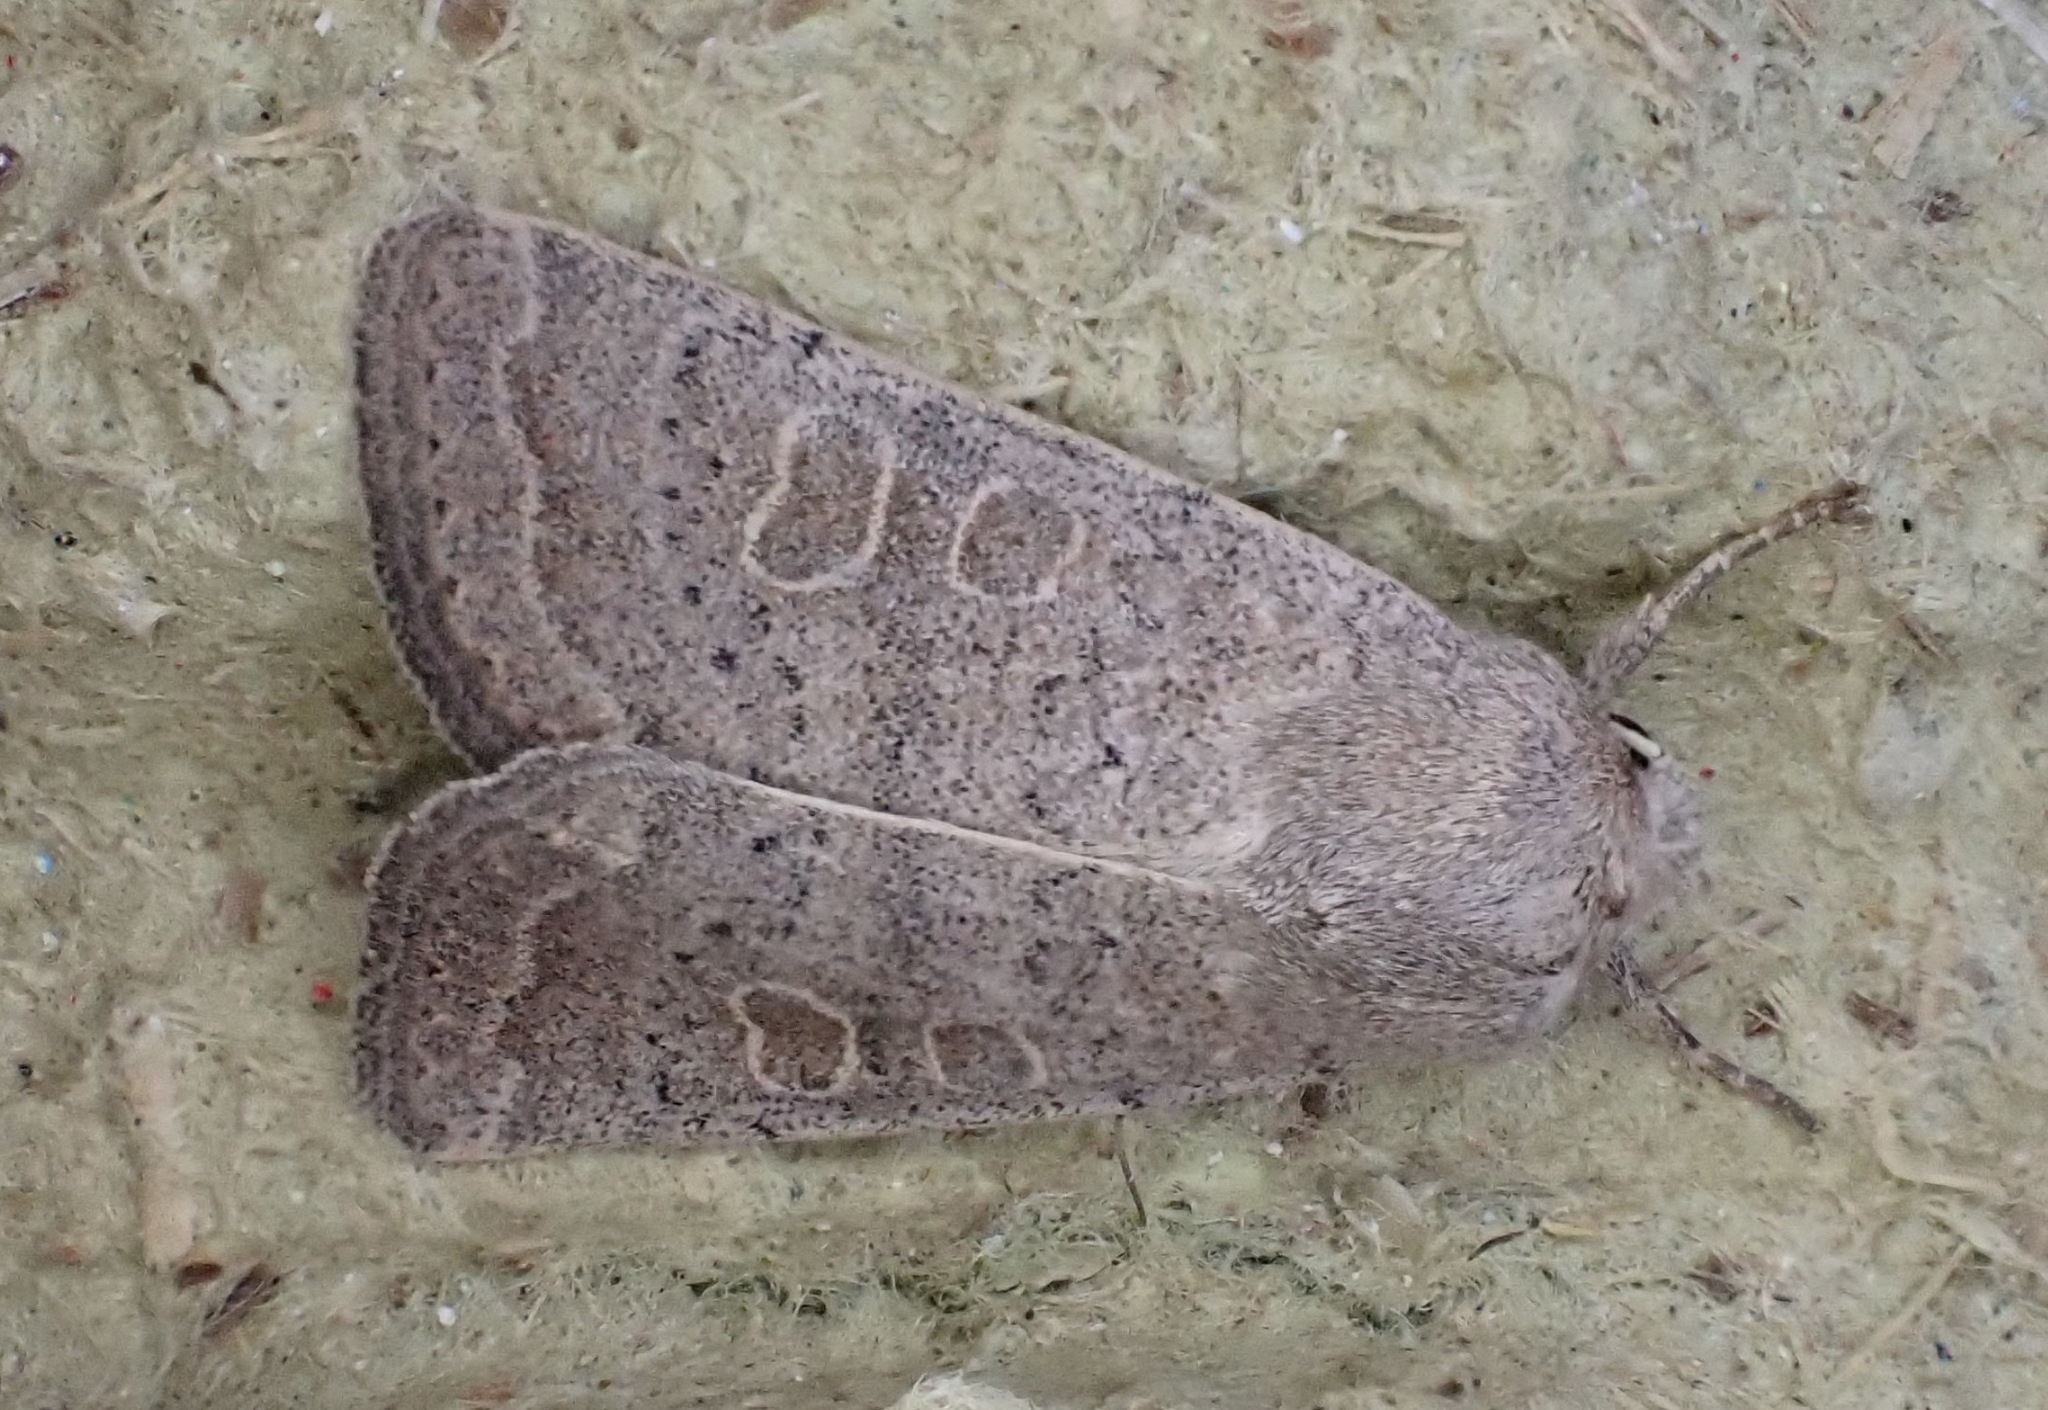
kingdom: Animalia
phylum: Arthropoda
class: Insecta
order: Lepidoptera
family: Noctuidae
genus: Hoplodrina
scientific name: Hoplodrina ambigua
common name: Vine's rustic
